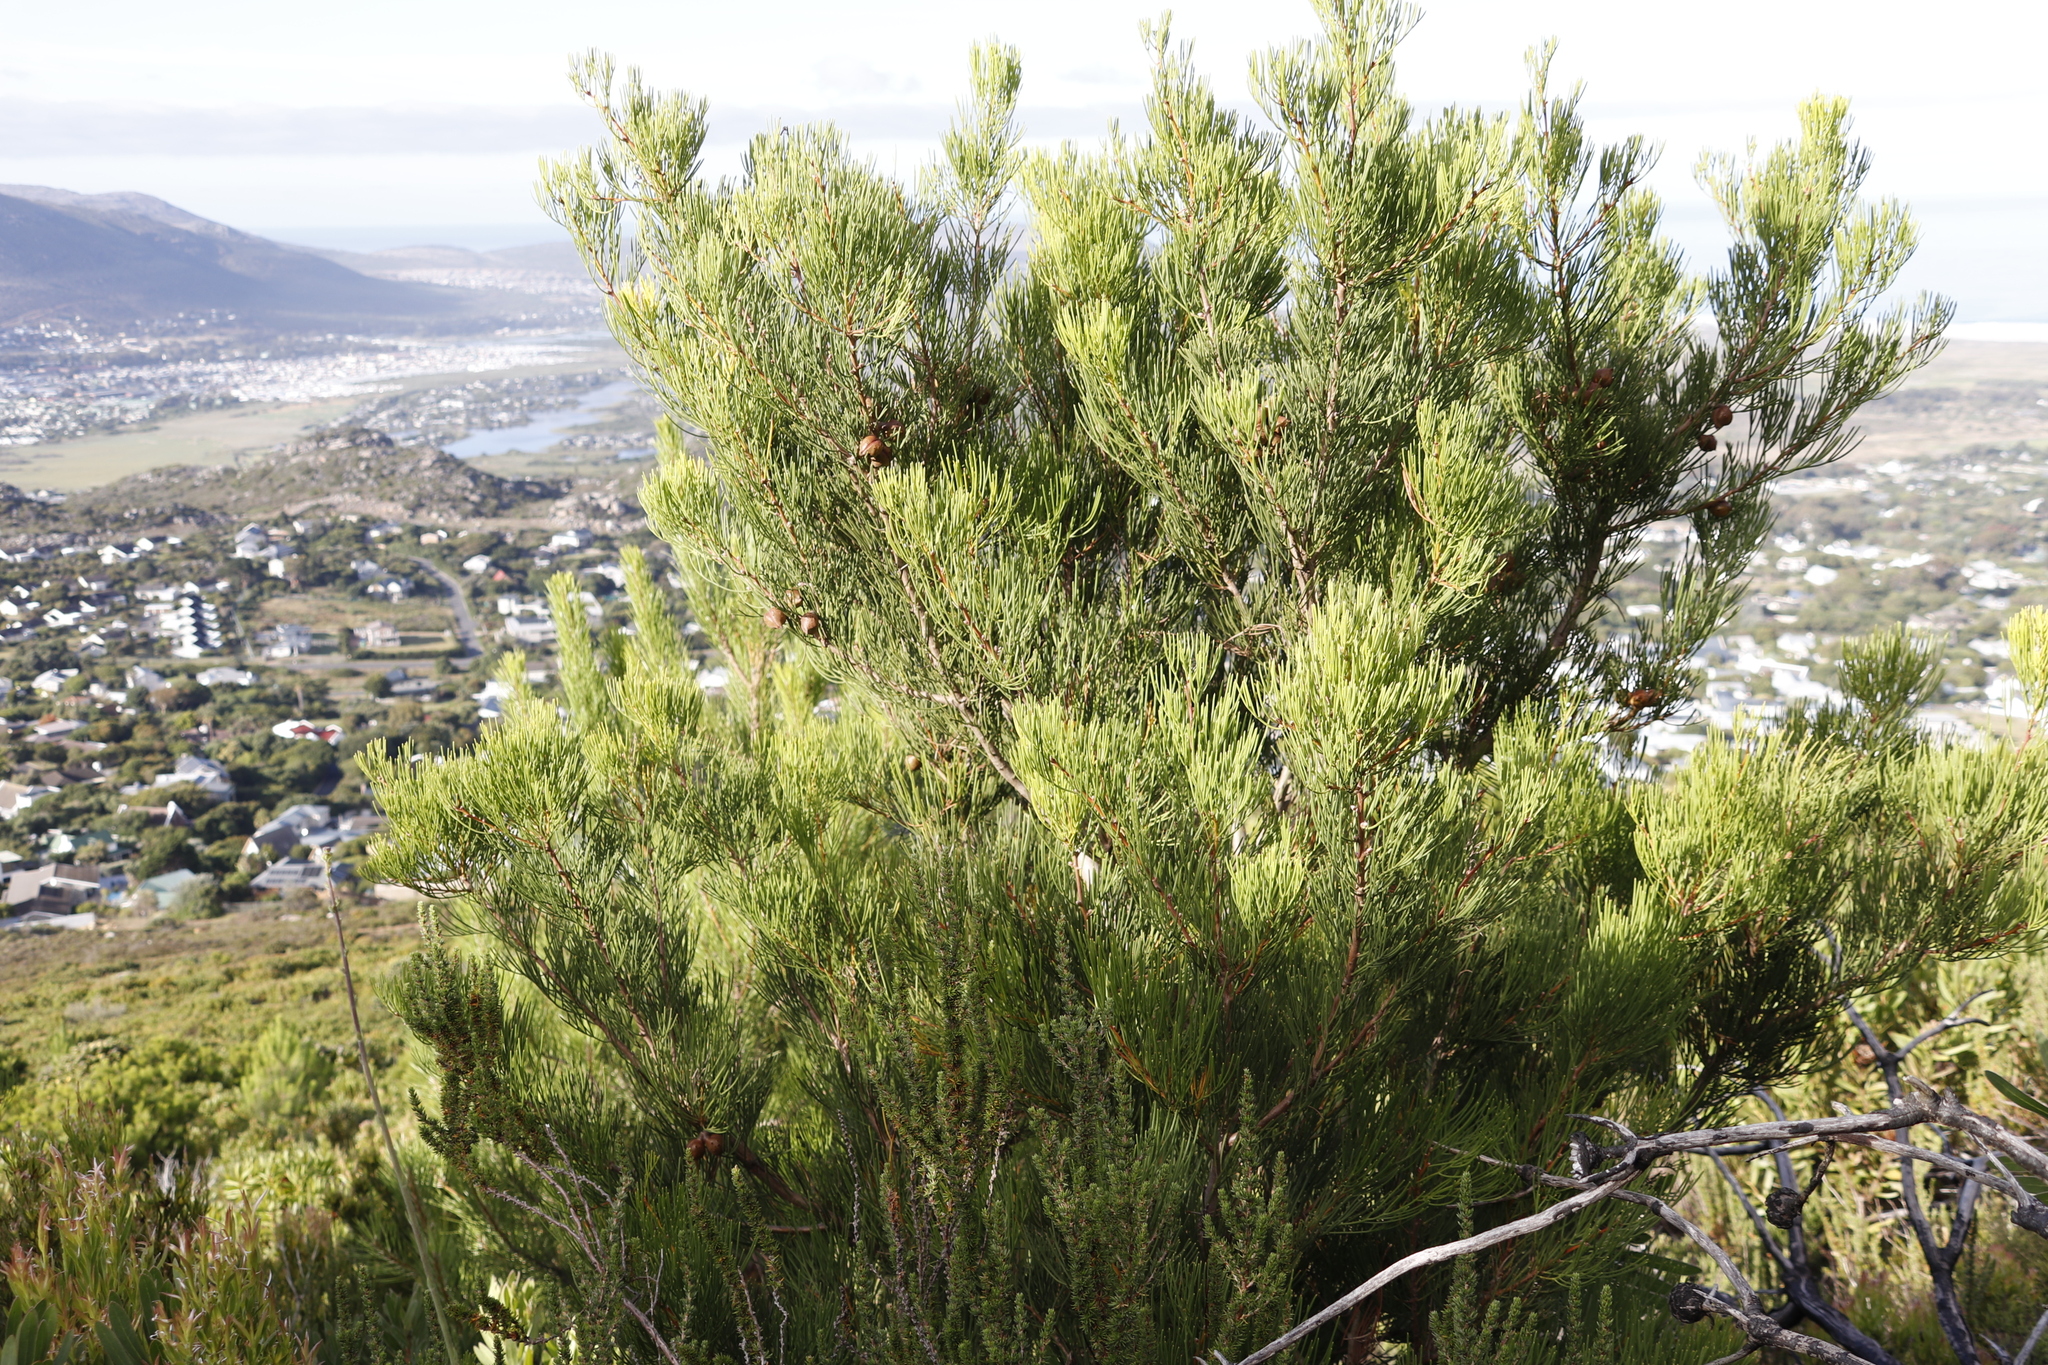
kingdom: Plantae
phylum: Tracheophyta
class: Magnoliopsida
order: Proteales
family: Proteaceae
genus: Hakea
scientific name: Hakea drupacea
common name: Sweet hakea
